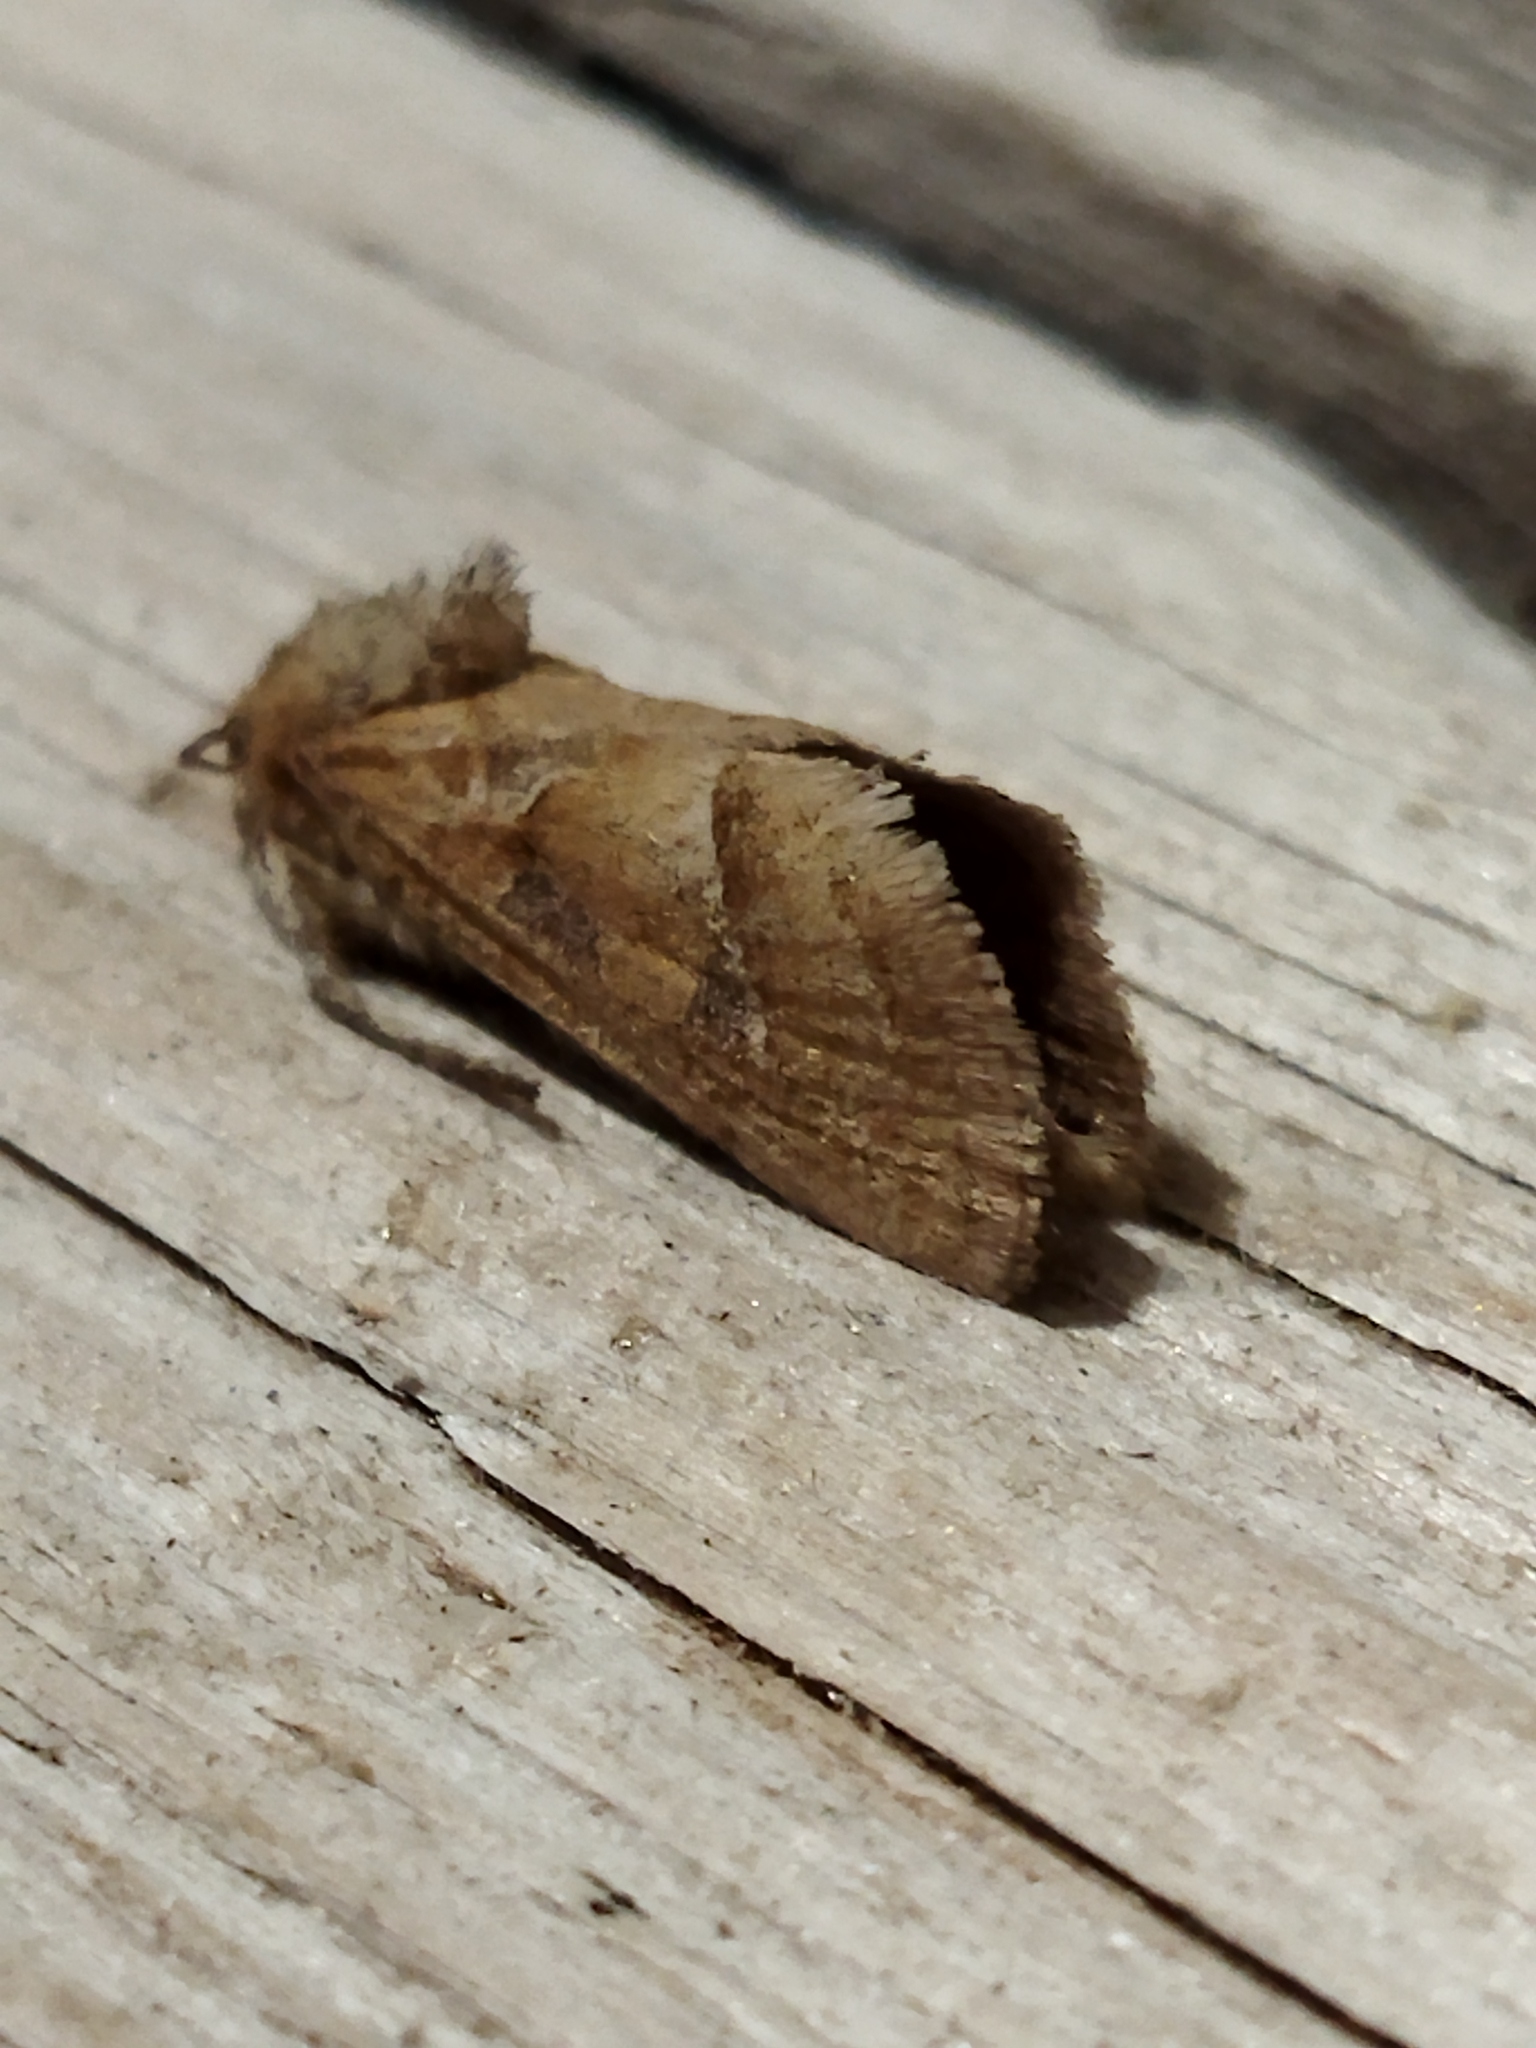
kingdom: Animalia
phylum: Arthropoda
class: Insecta
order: Lepidoptera
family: Hepialidae
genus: Triodia
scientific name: Triodia amasinus
